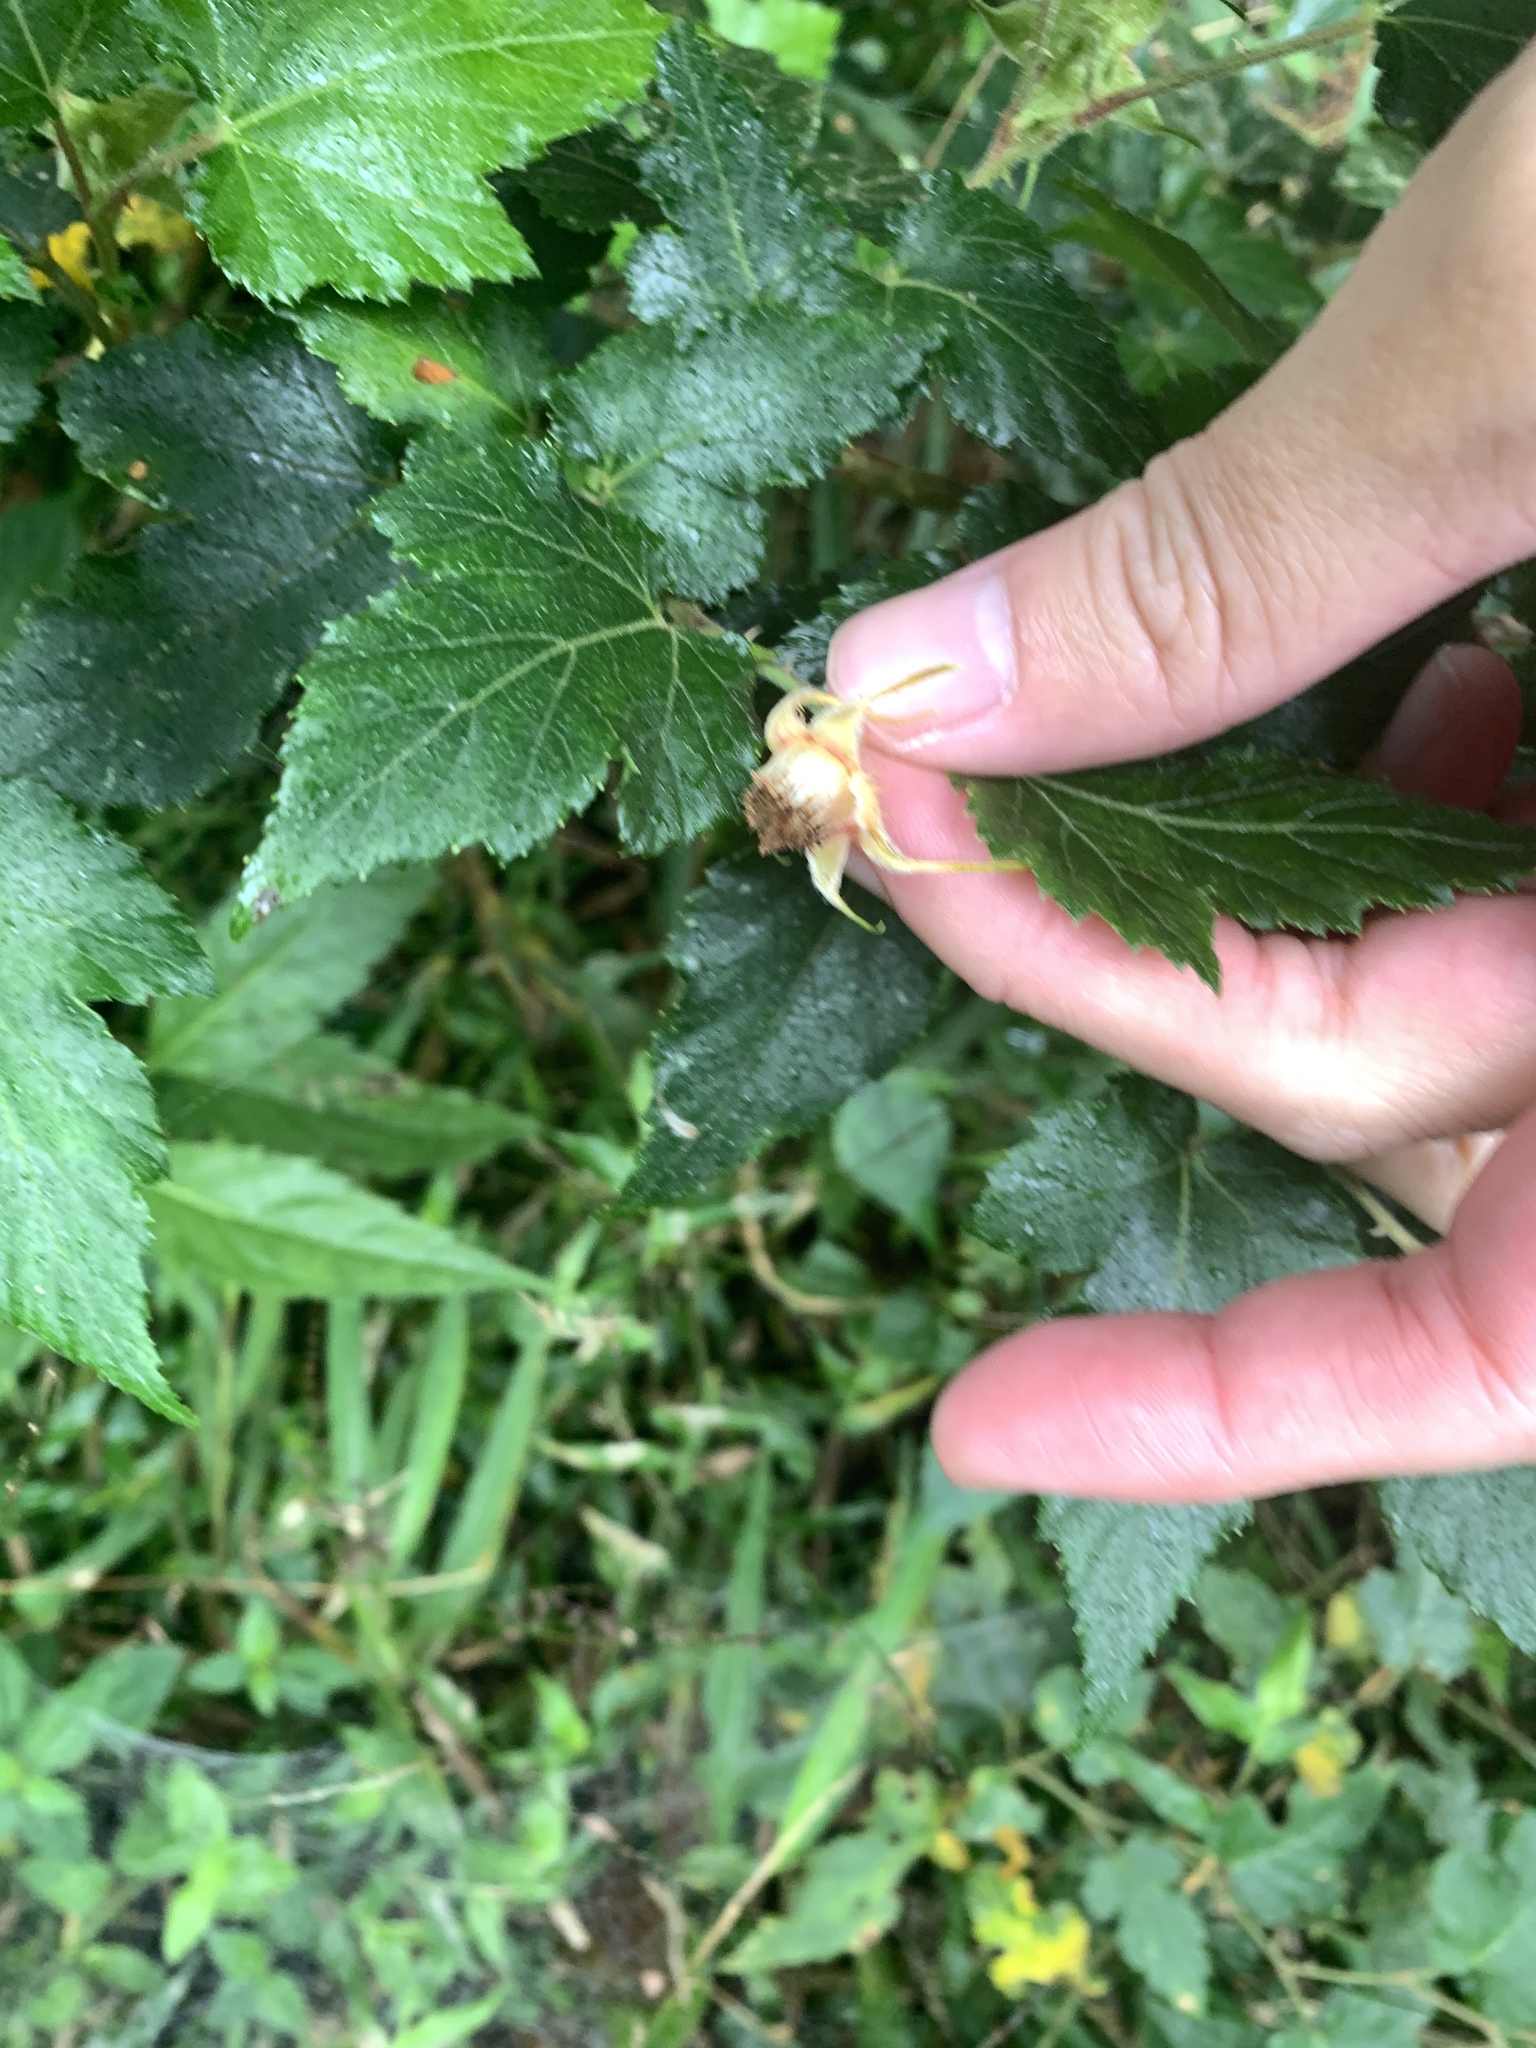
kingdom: Plantae
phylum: Tracheophyta
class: Magnoliopsida
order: Rosales
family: Rosaceae
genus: Rubus
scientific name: Rubus taitoensis
